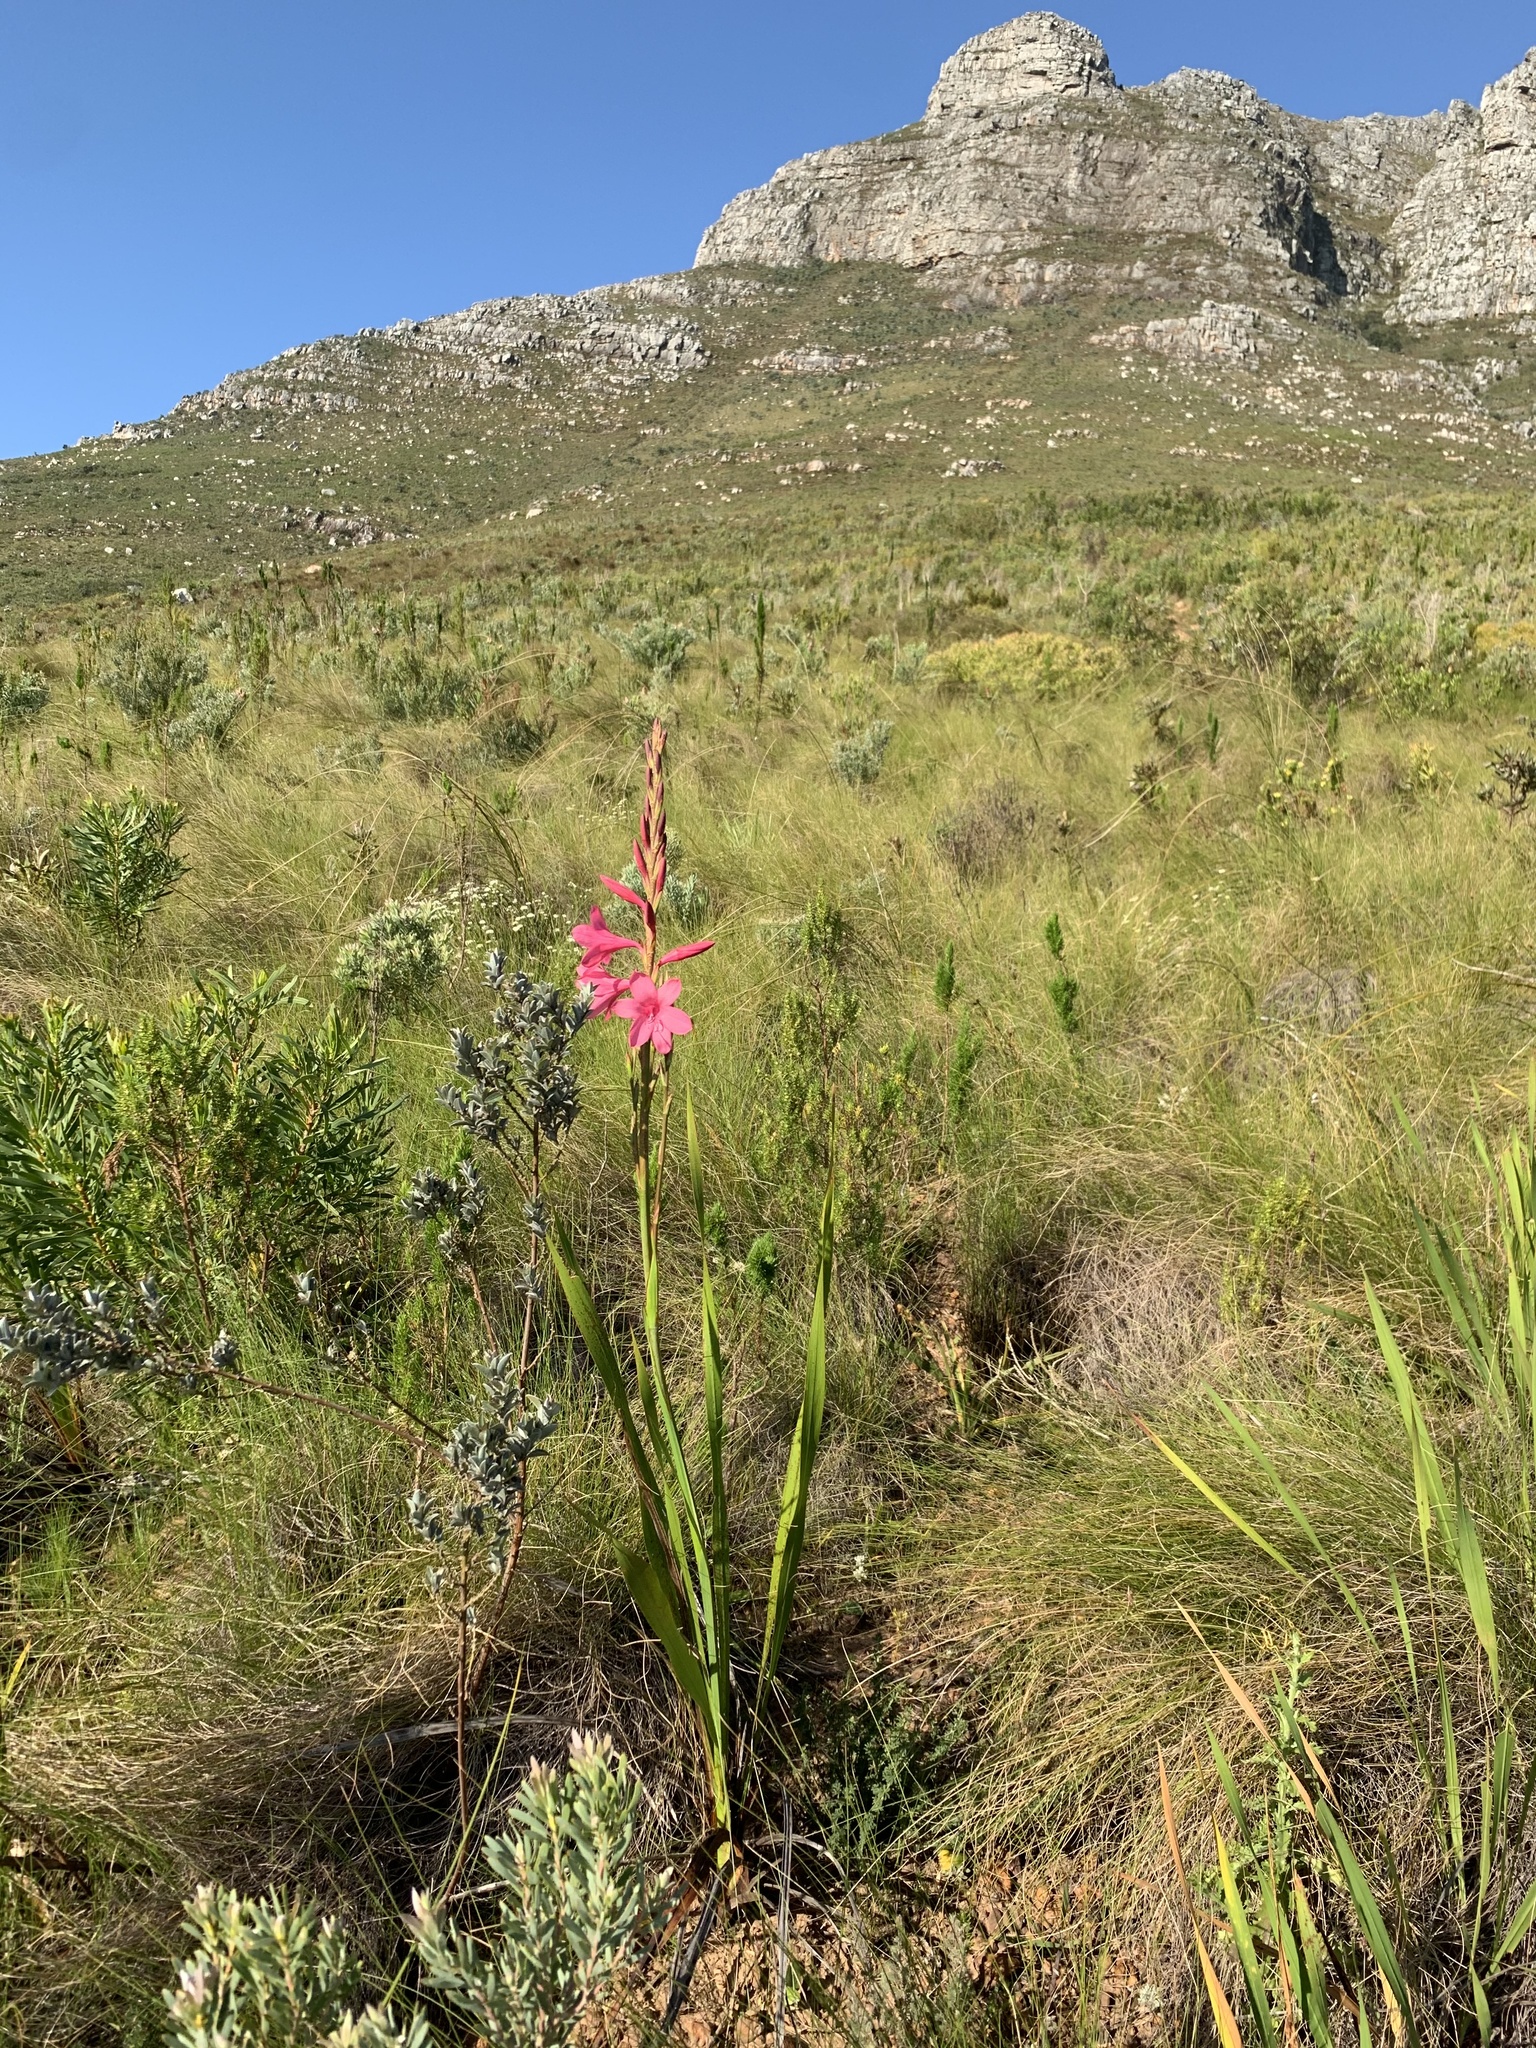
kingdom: Plantae
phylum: Tracheophyta
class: Liliopsida
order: Asparagales
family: Iridaceae
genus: Watsonia
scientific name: Watsonia borbonica
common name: Bugle-lily
